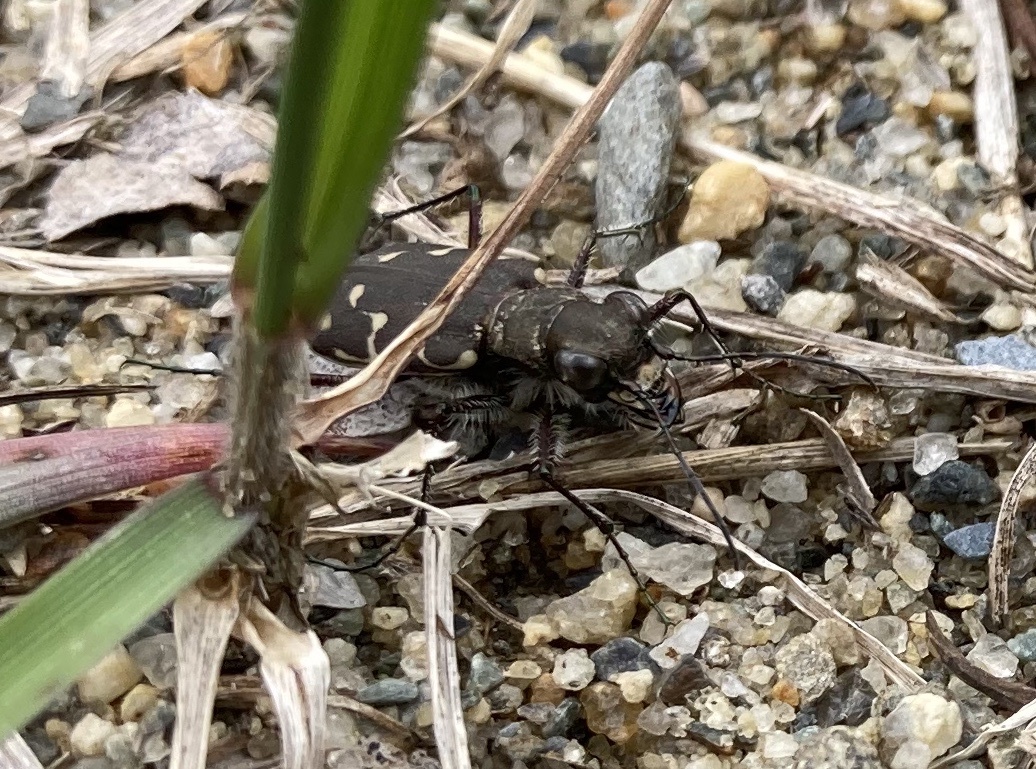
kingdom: Animalia
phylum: Arthropoda
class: Insecta
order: Coleoptera
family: Carabidae
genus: Cicindela
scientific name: Cicindela duodecimguttata
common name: Twelve-spotted tiger beetle
